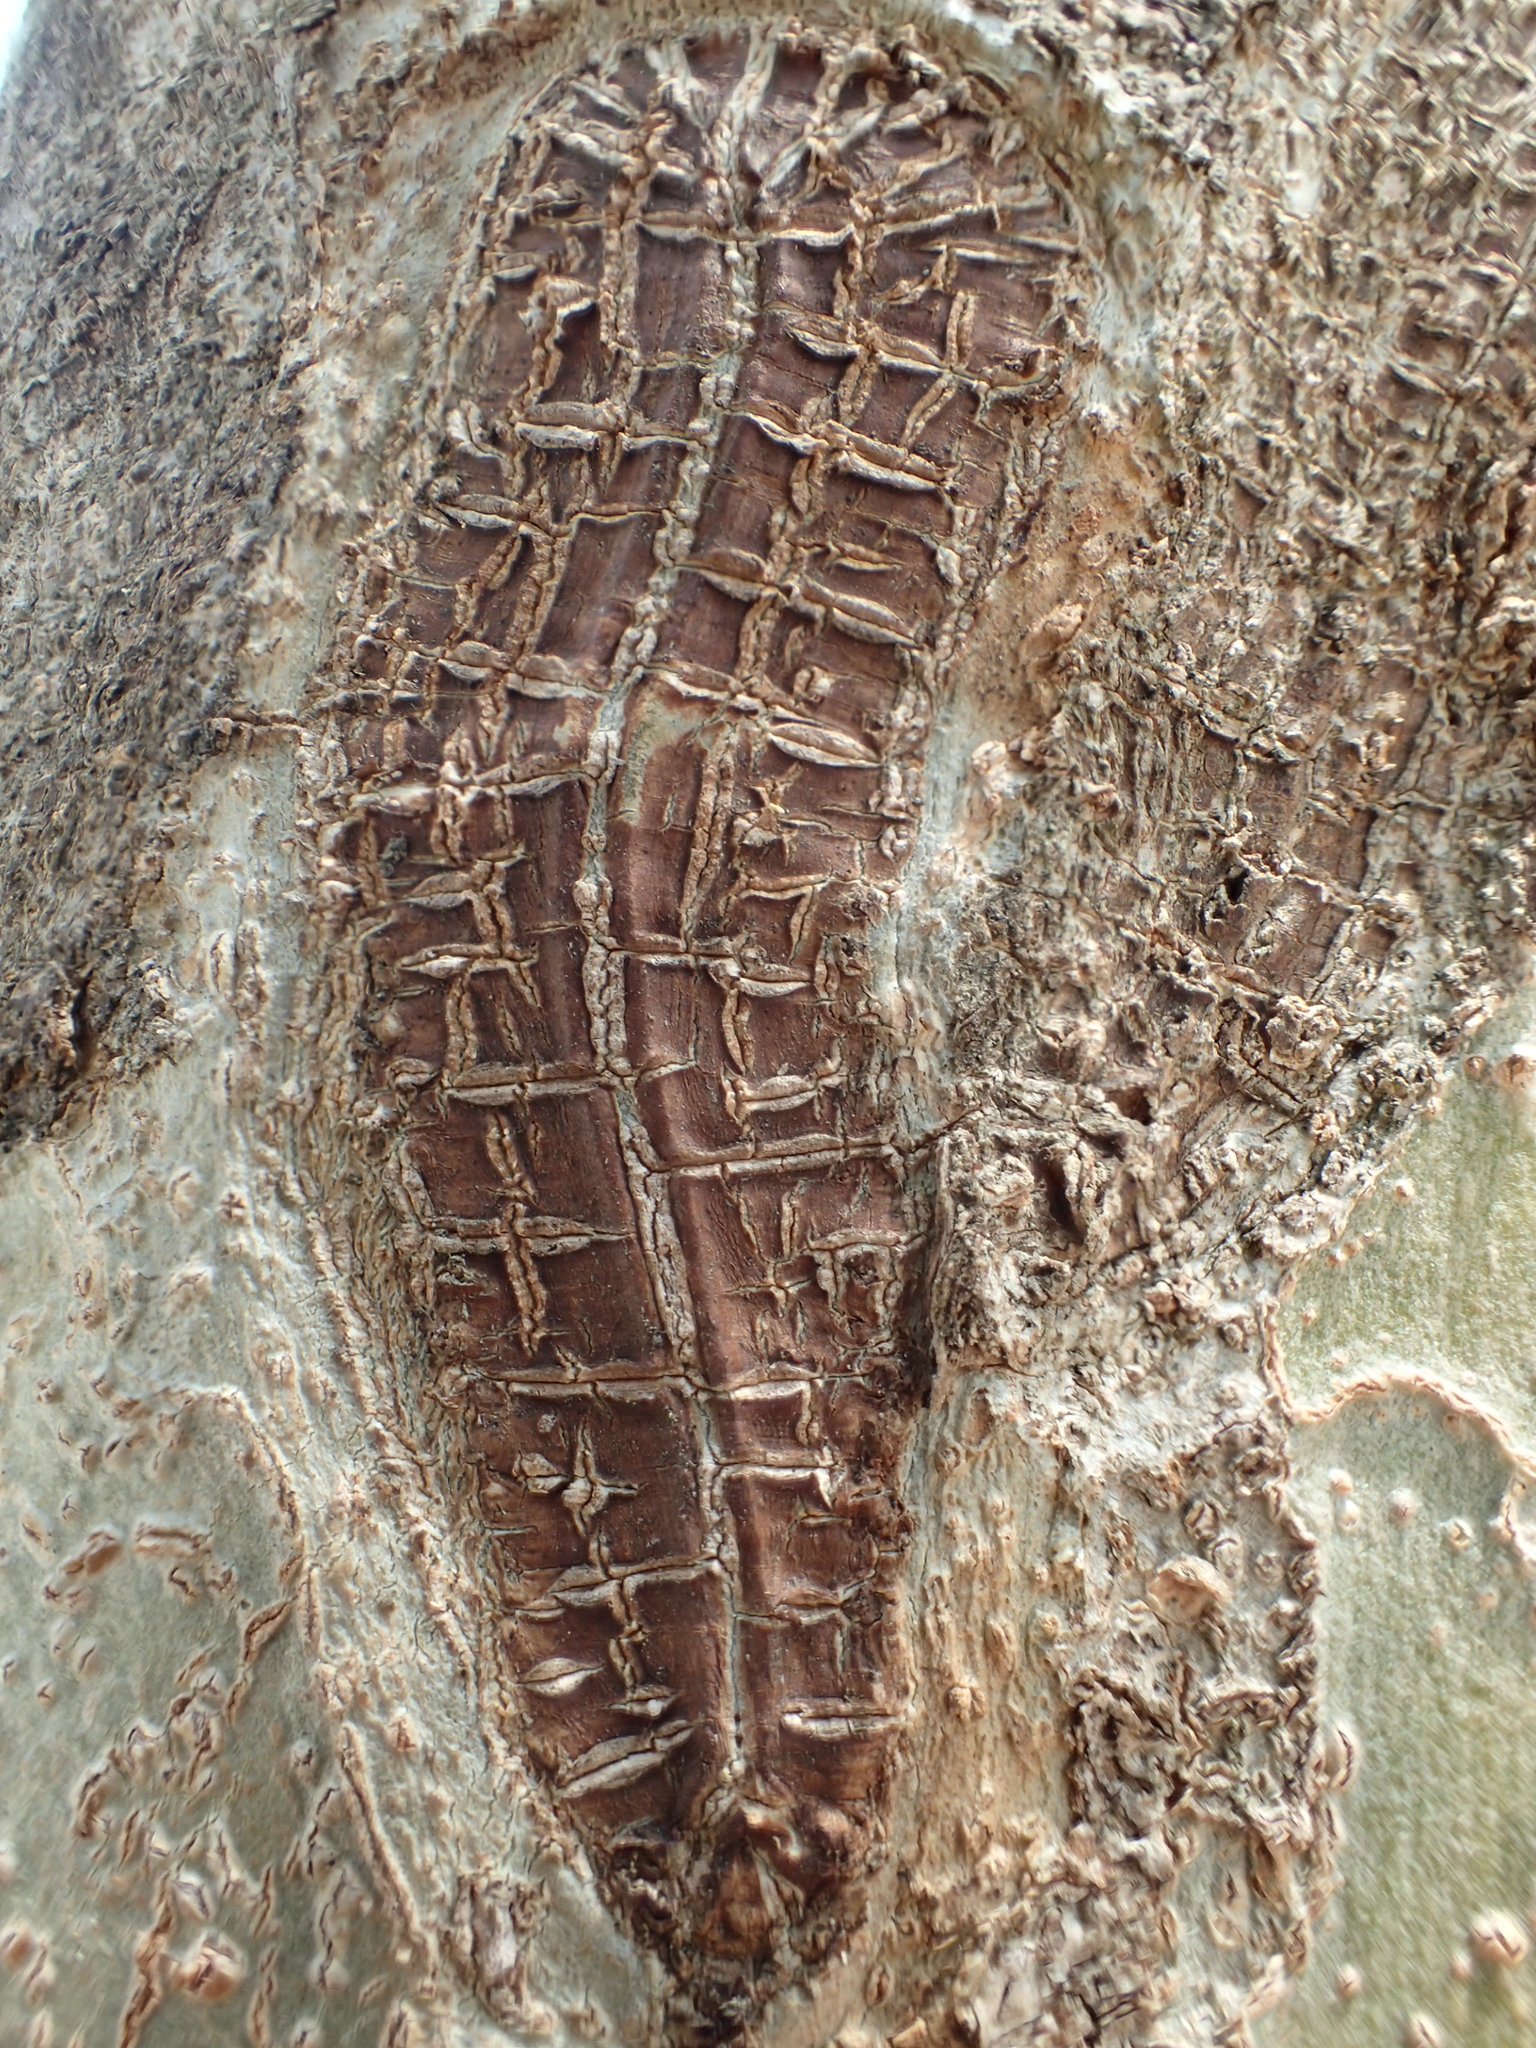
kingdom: Plantae
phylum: Tracheophyta
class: Magnoliopsida
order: Lamiales
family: Oleaceae
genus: Fraxinus
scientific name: Fraxinus griffithii
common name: Himalayan ash
